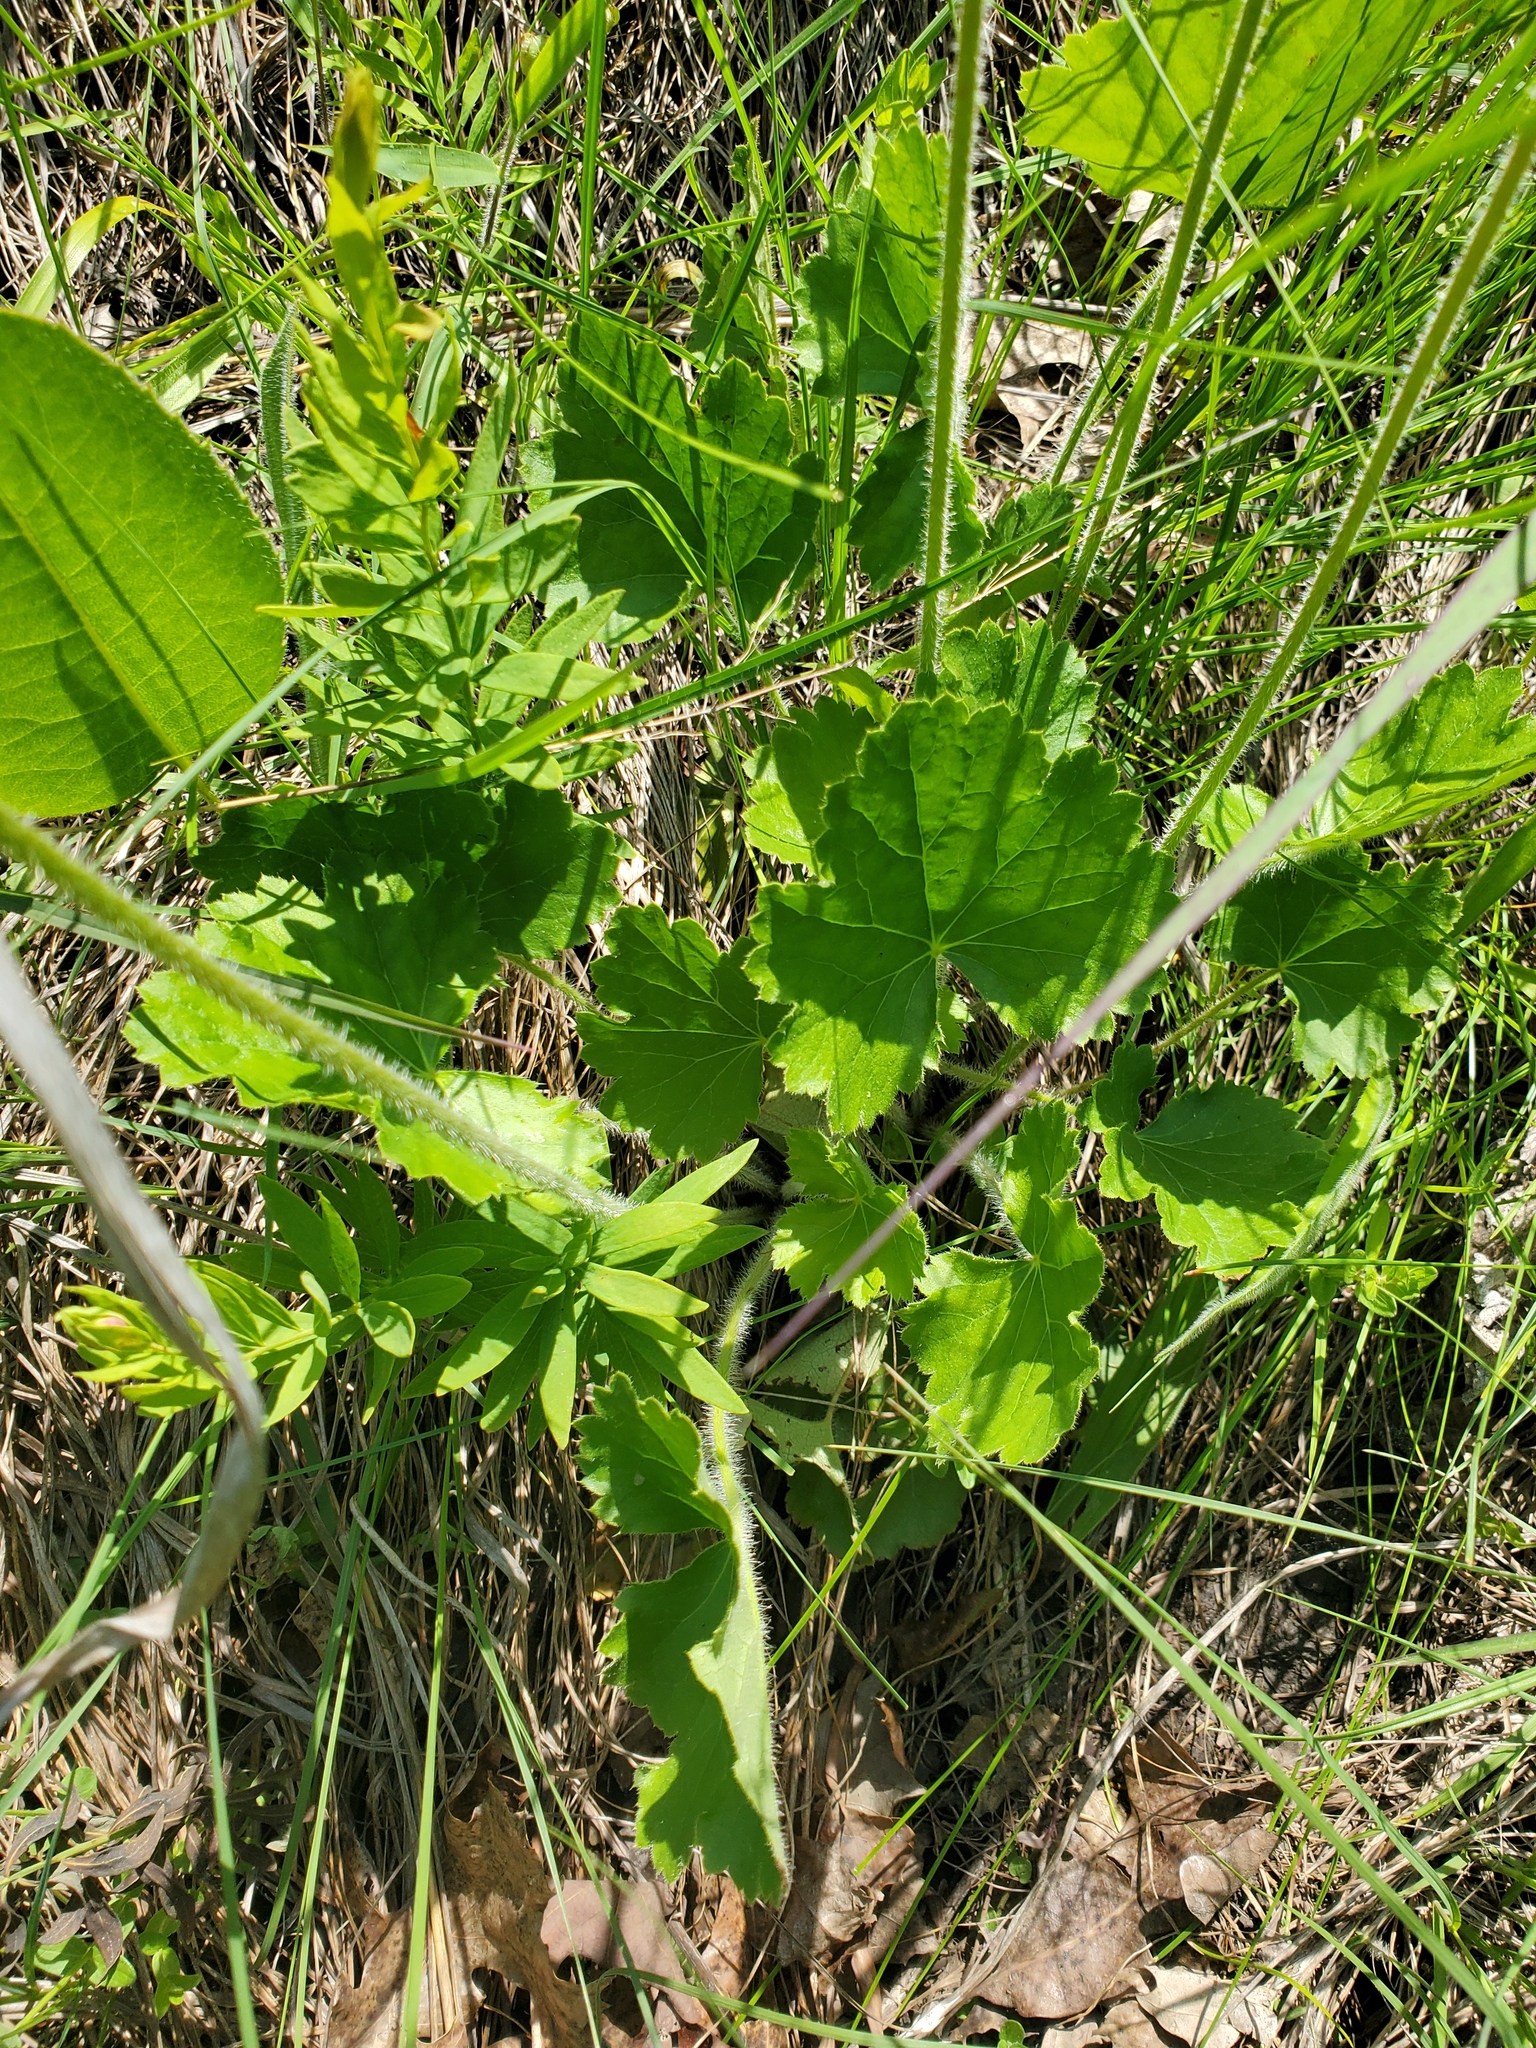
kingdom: Plantae
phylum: Tracheophyta
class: Magnoliopsida
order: Saxifragales
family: Saxifragaceae
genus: Heuchera
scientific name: Heuchera richardsonii
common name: Richardson's alumroot
